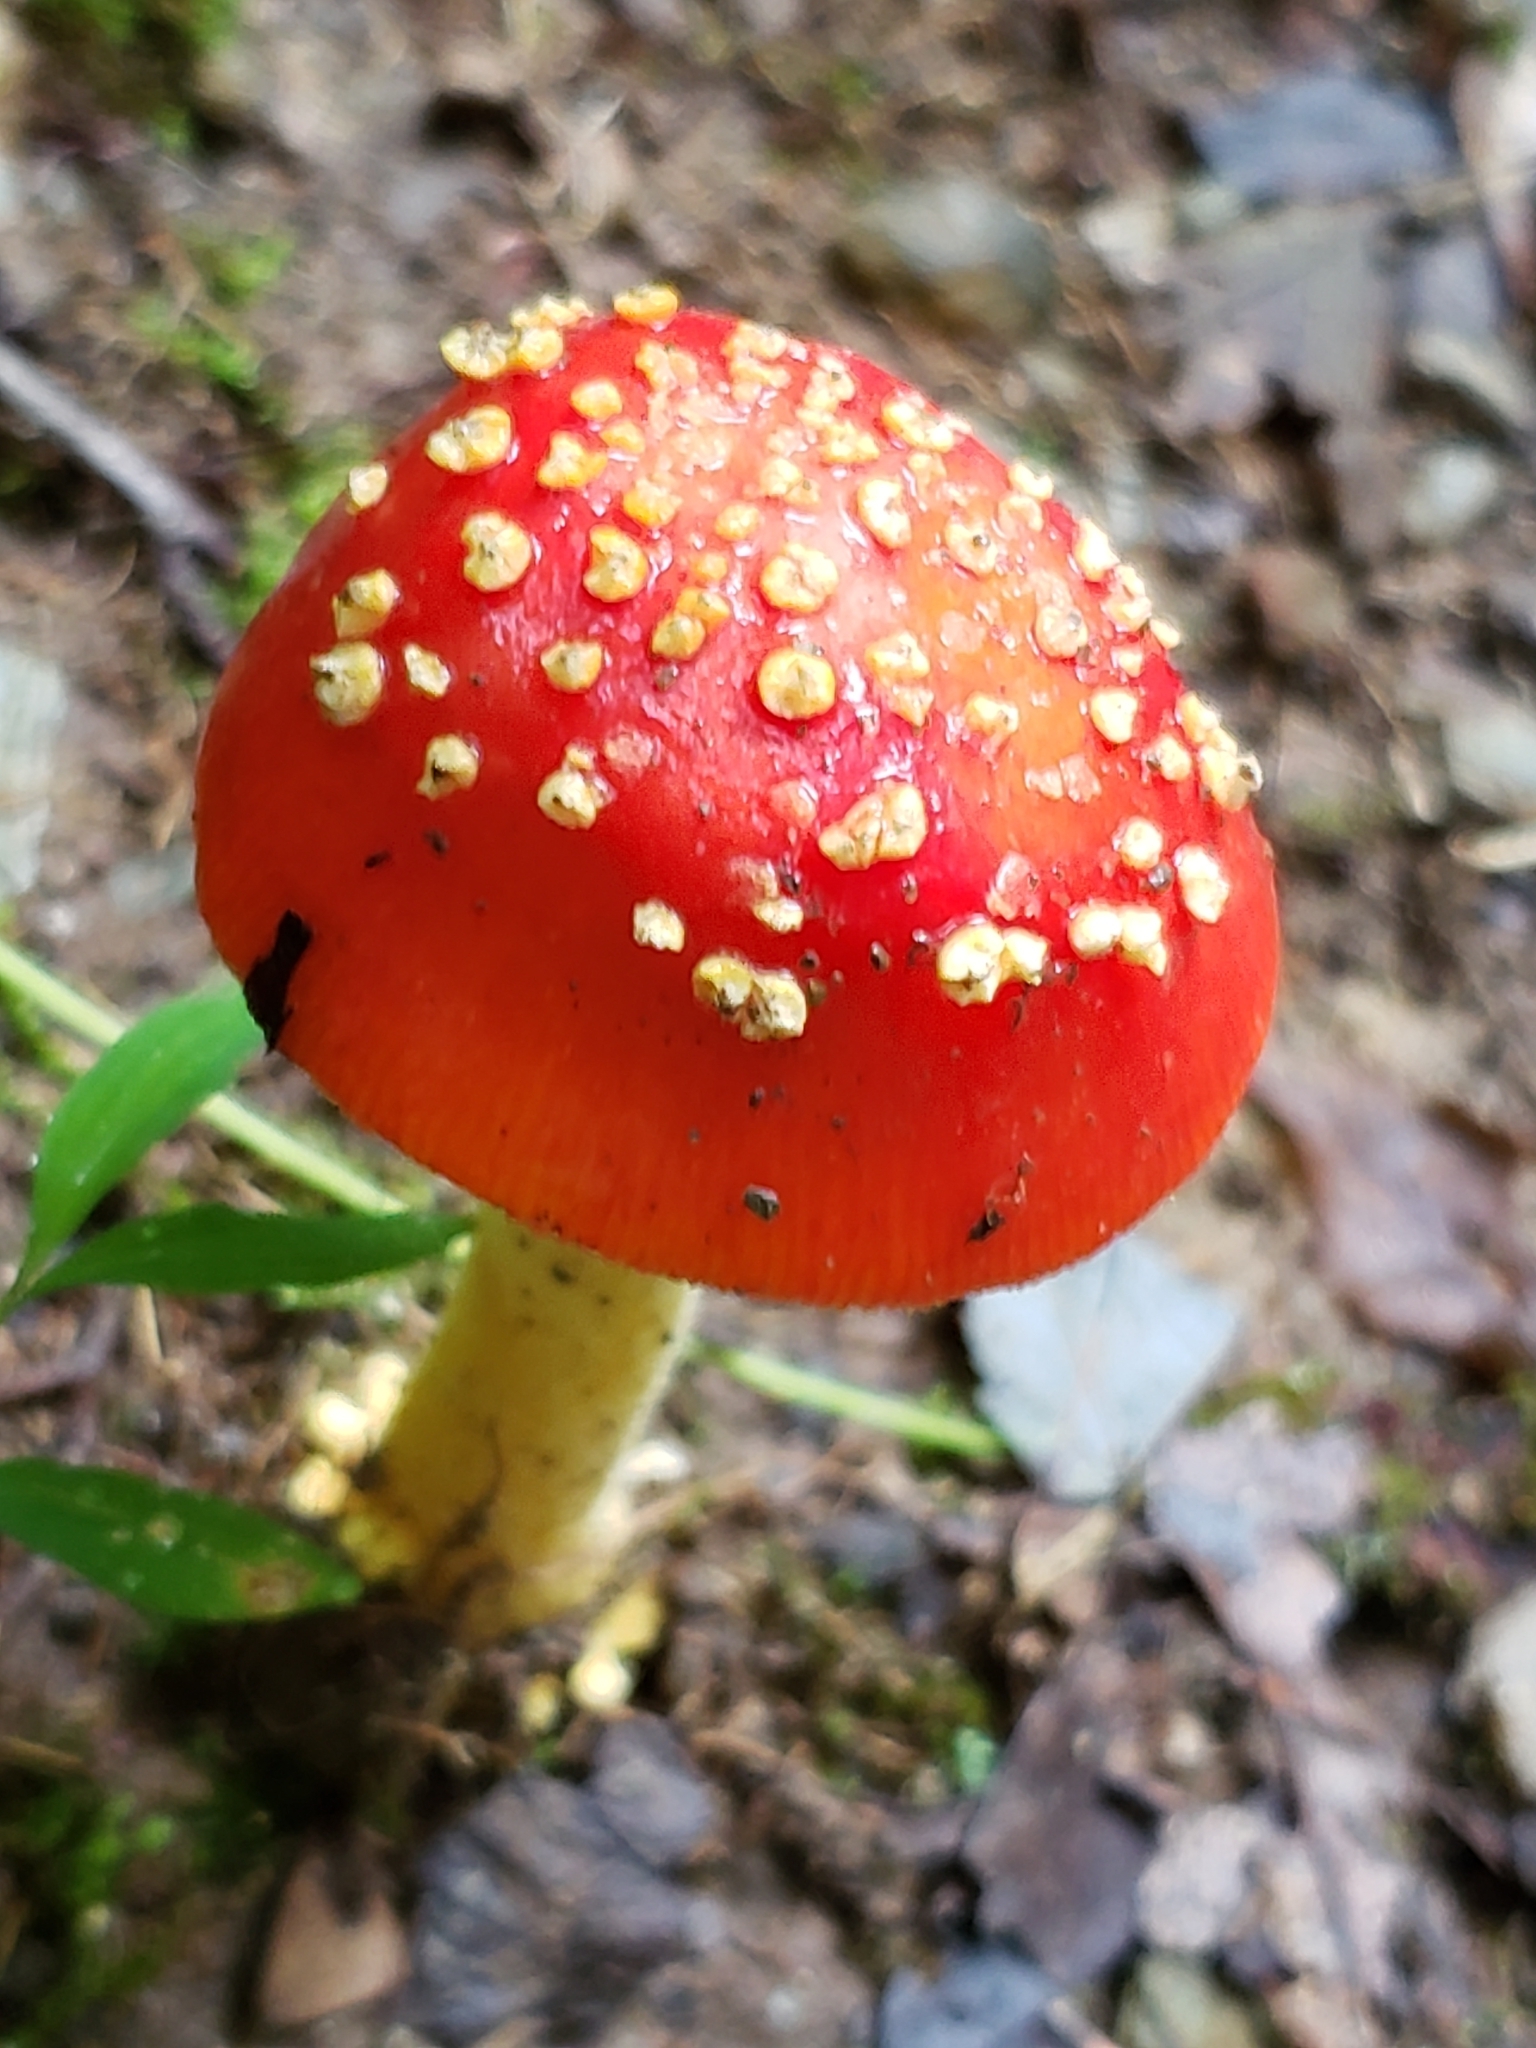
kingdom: Fungi
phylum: Basidiomycota
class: Agaricomycetes
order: Agaricales
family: Amanitaceae
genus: Amanita
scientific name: Amanita parcivolvata
